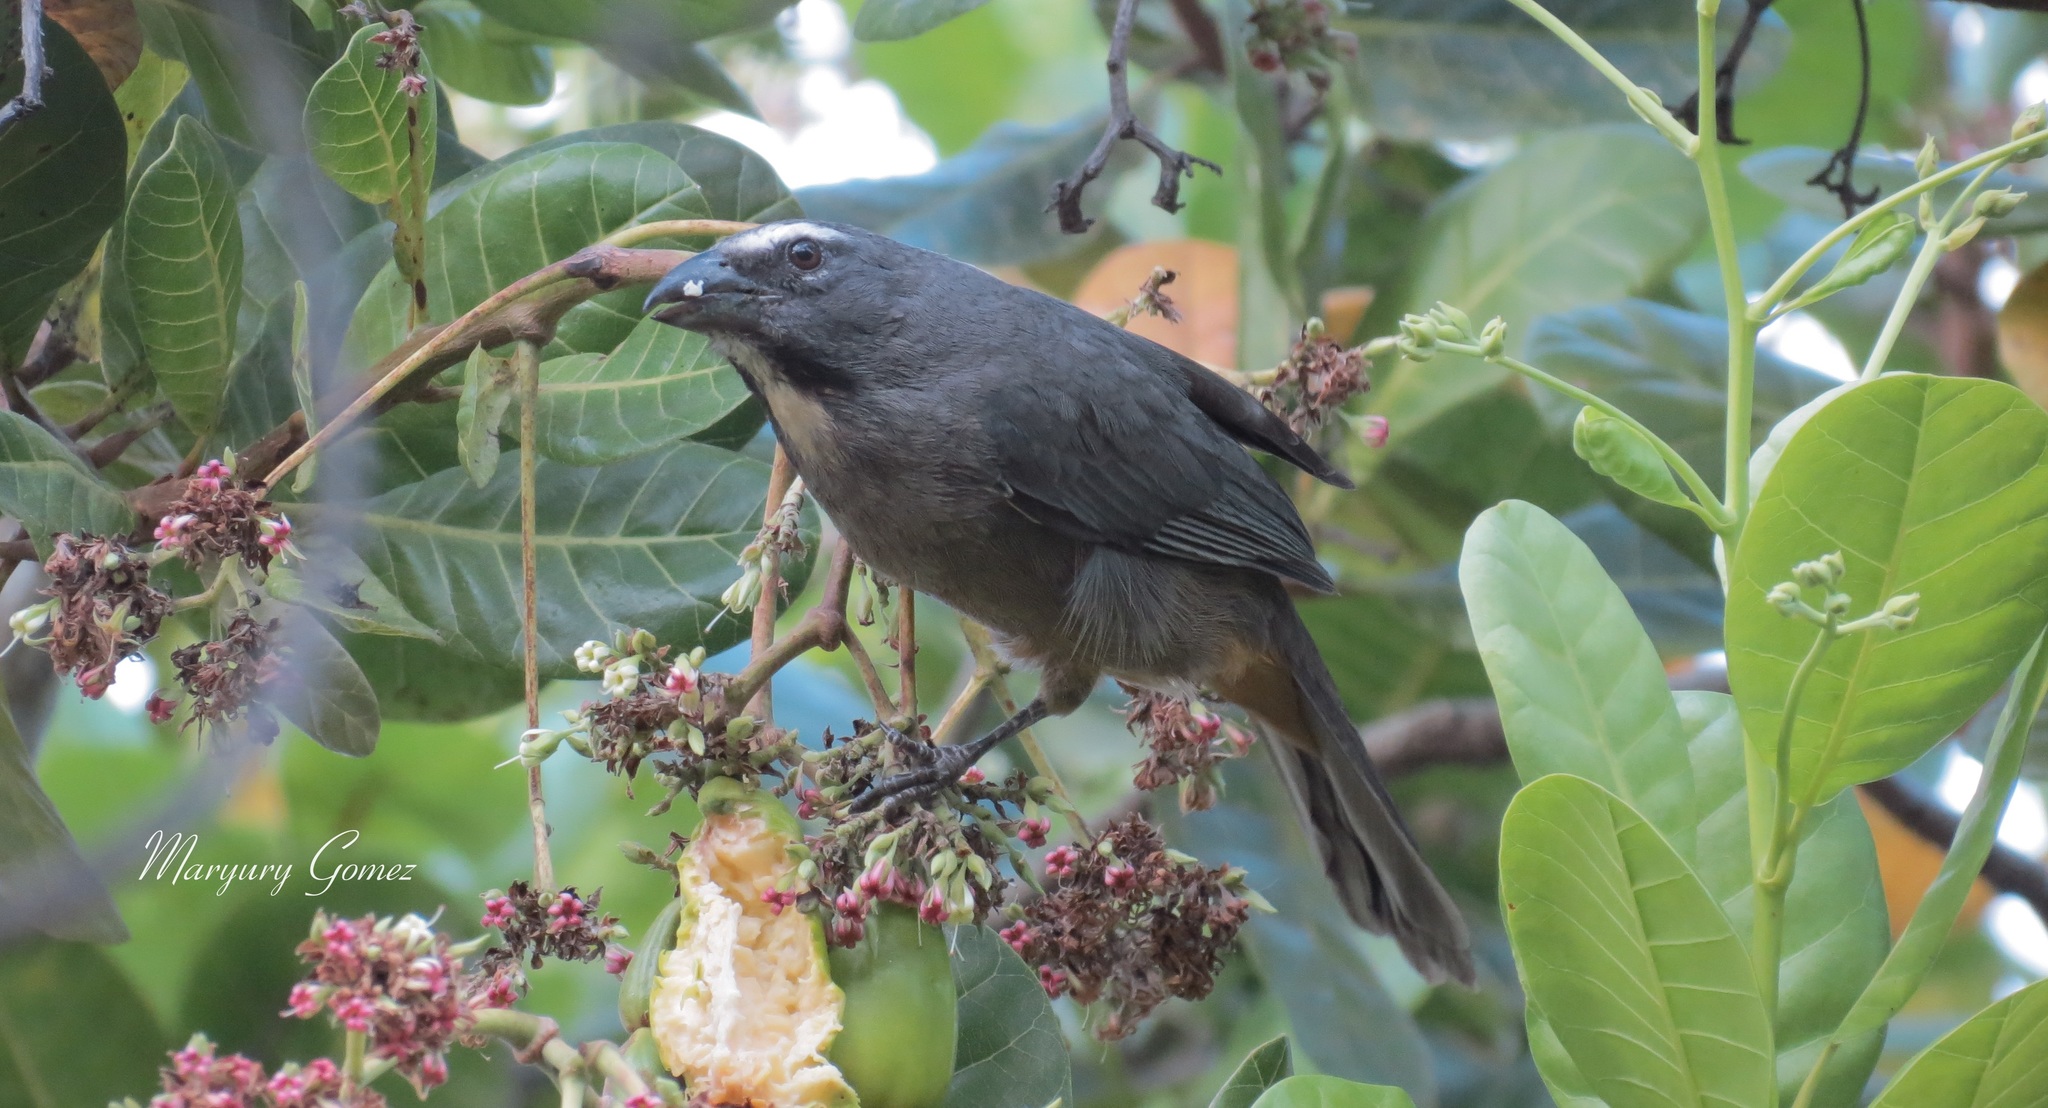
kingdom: Animalia
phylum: Chordata
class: Aves
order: Passeriformes
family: Thraupidae
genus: Saltator
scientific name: Saltator grandis
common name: Cinnamon-bellied saltator
